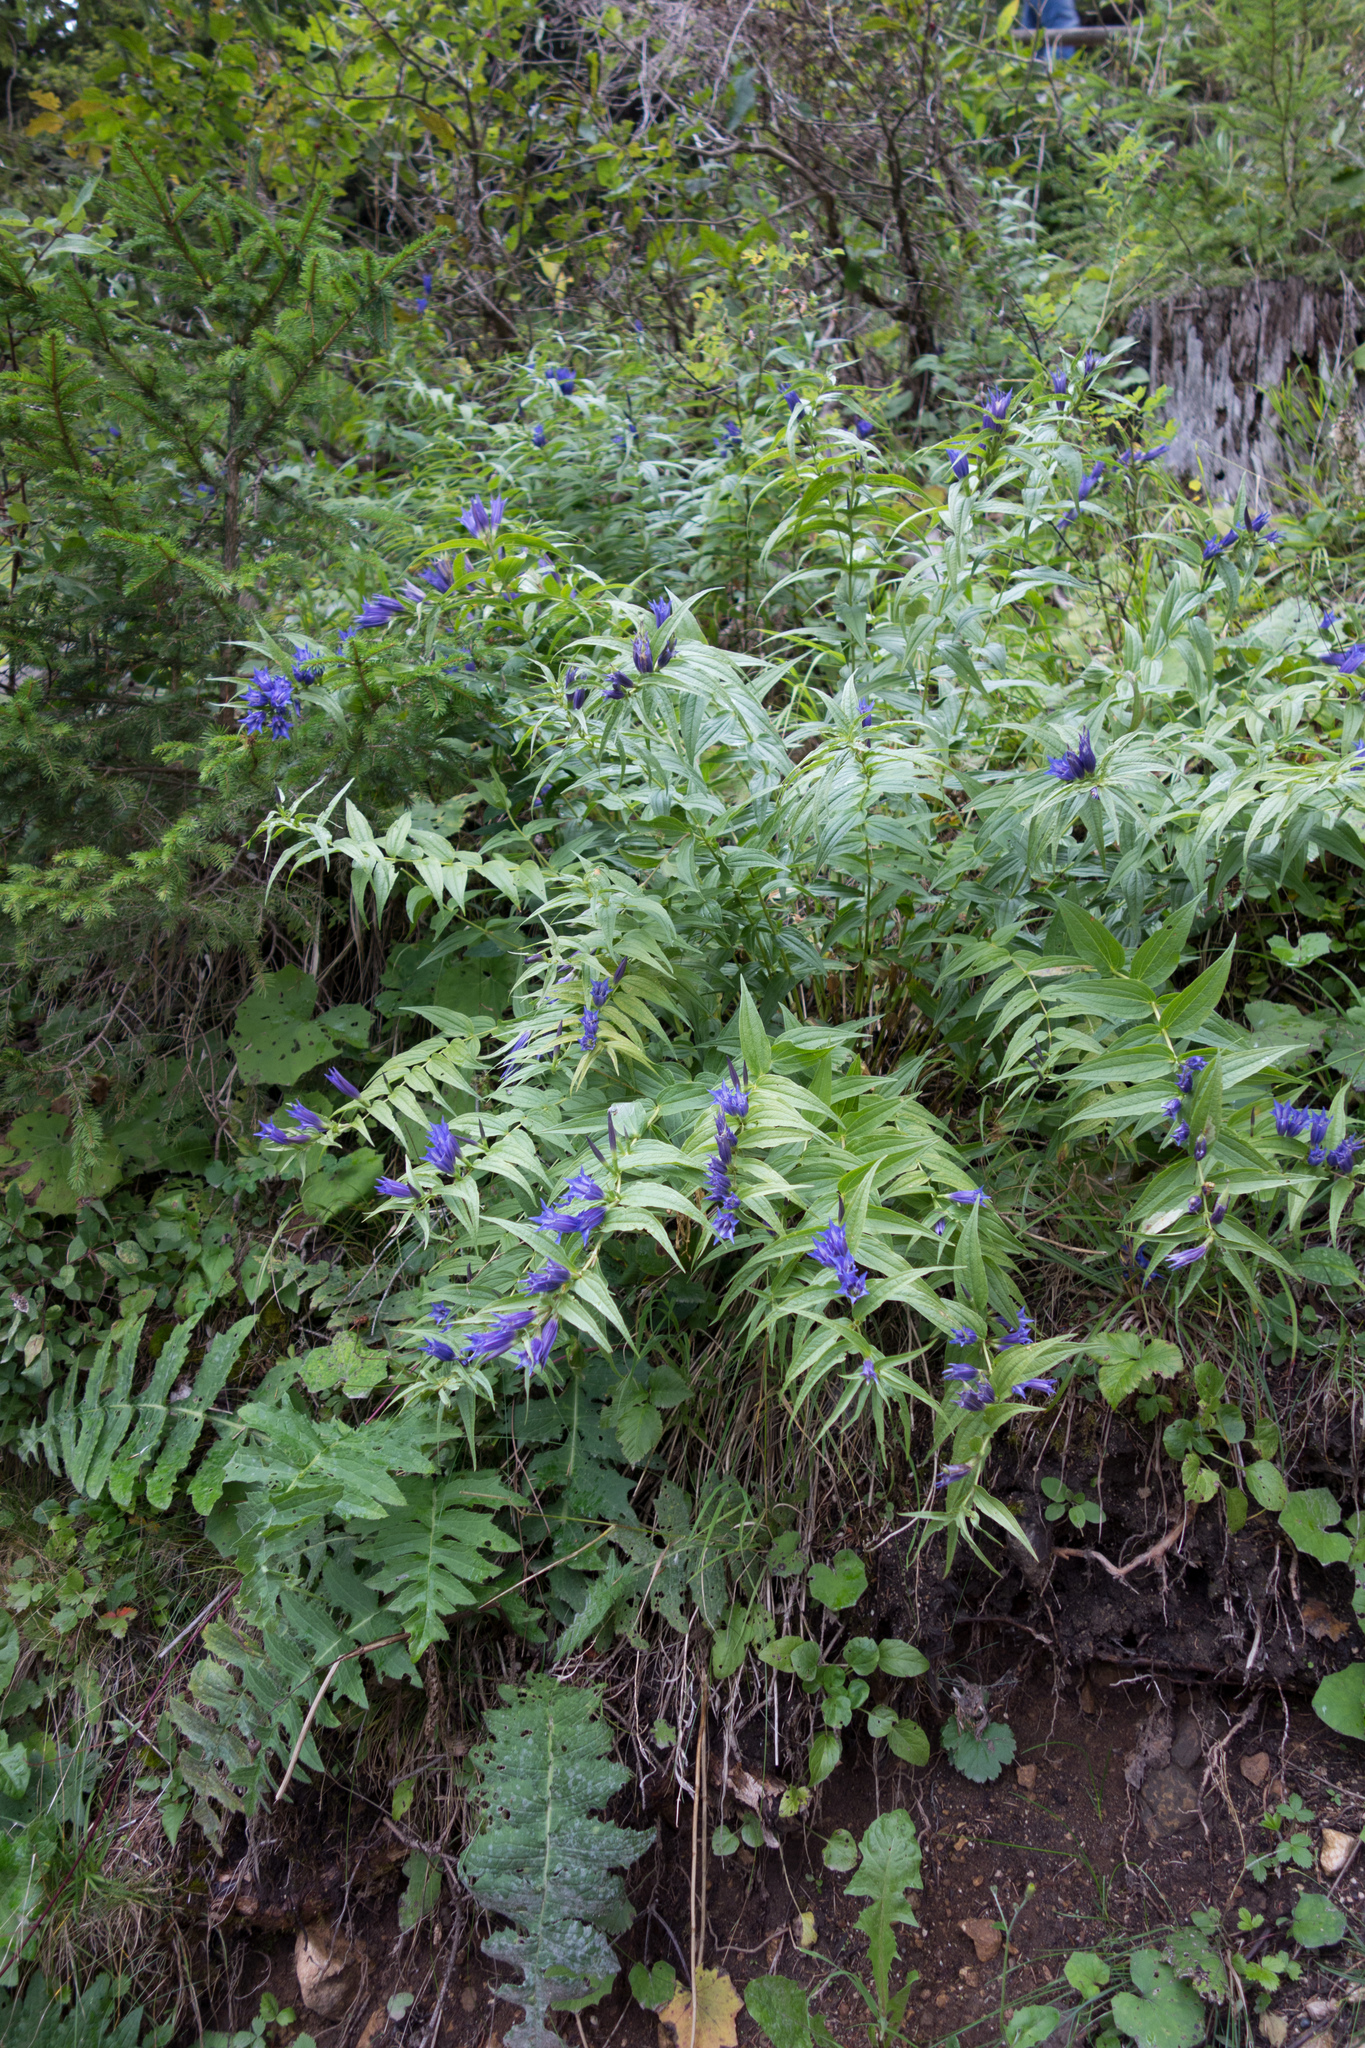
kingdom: Plantae
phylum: Tracheophyta
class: Magnoliopsida
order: Gentianales
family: Gentianaceae
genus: Gentiana
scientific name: Gentiana asclepiadea
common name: Willow gentian
